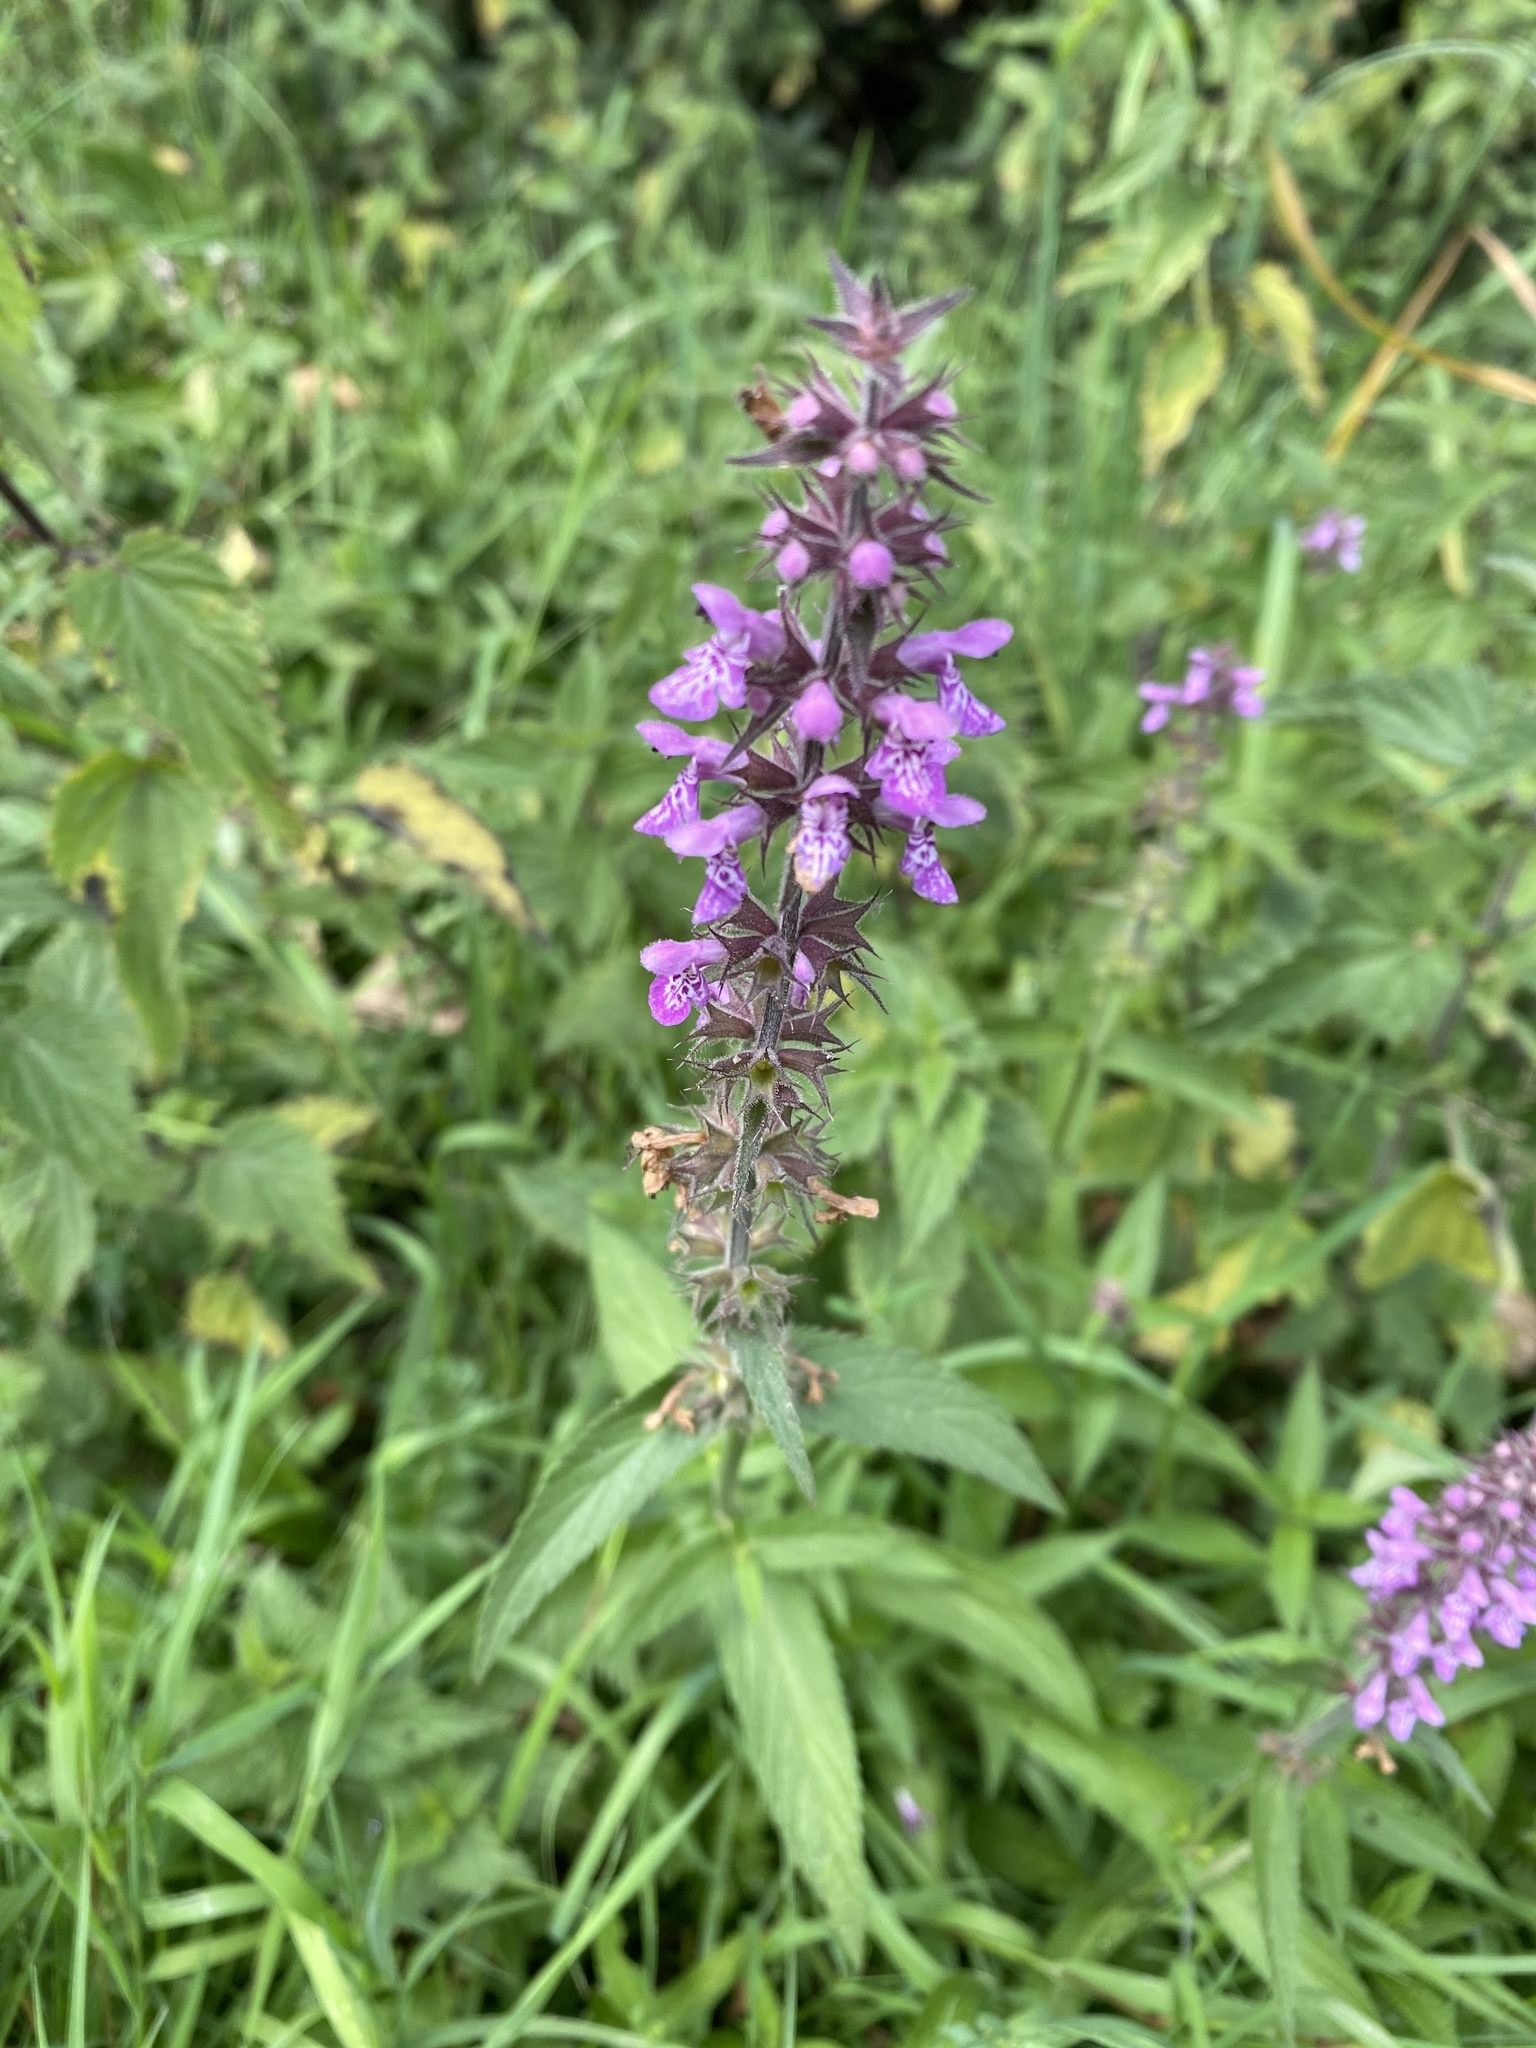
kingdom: Plantae
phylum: Tracheophyta
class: Magnoliopsida
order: Lamiales
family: Lamiaceae
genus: Stachys
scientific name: Stachys palustris
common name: Marsh woundwort
